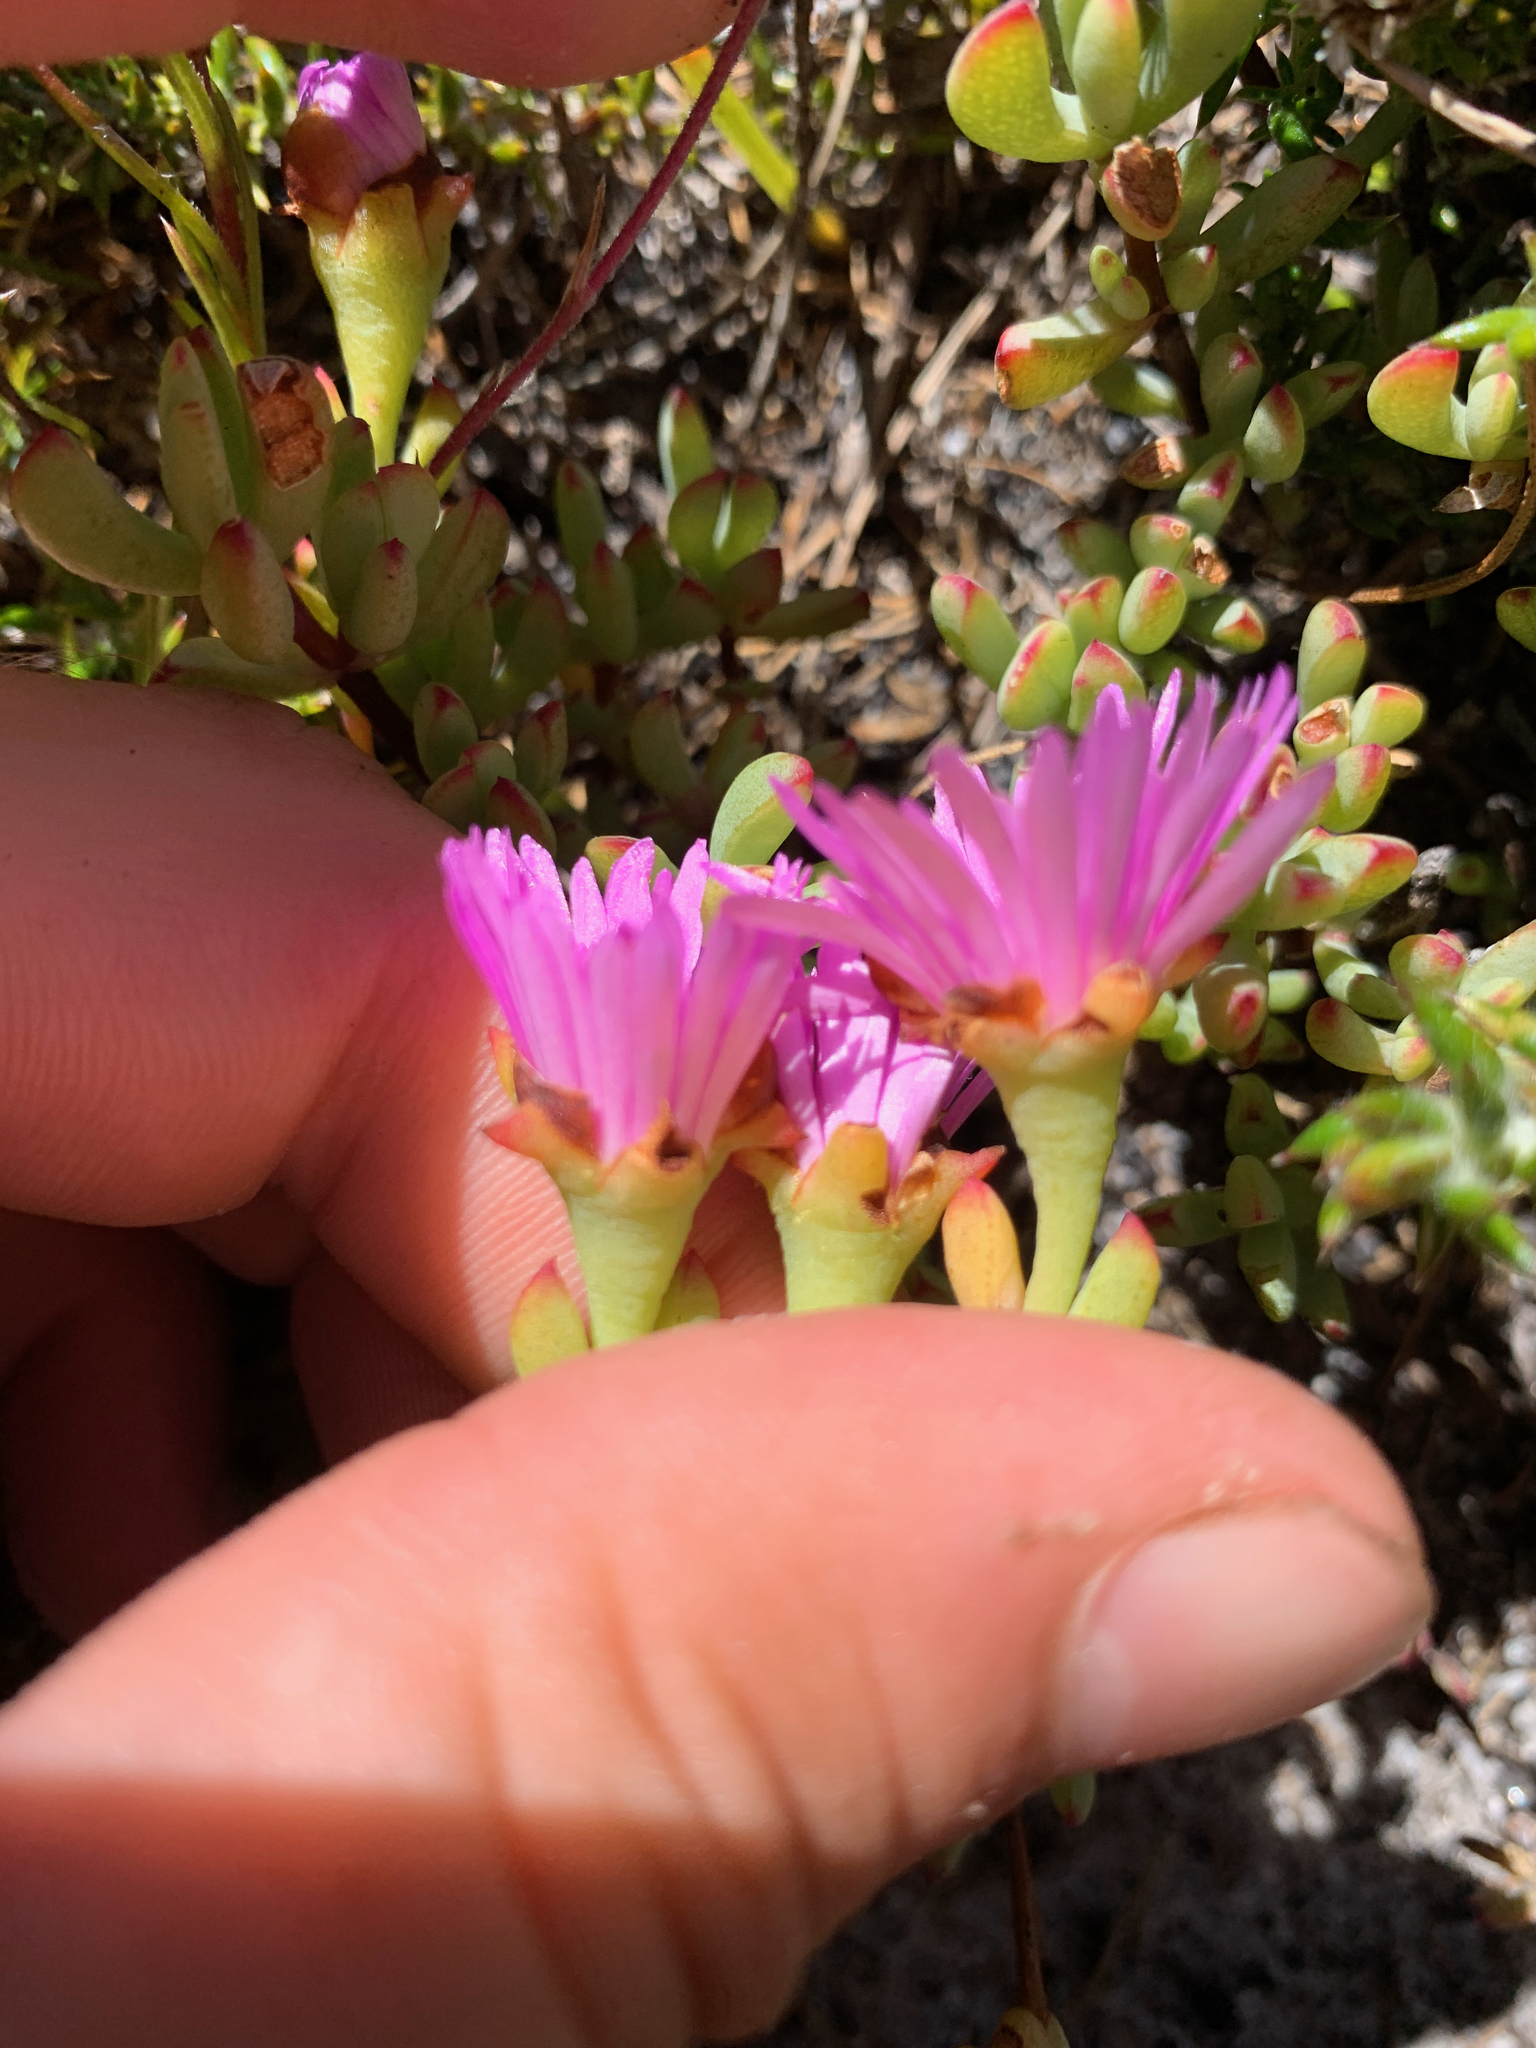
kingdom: Plantae
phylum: Tracheophyta
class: Magnoliopsida
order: Caryophyllales
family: Aizoaceae
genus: Oscularia
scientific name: Oscularia falciformis
